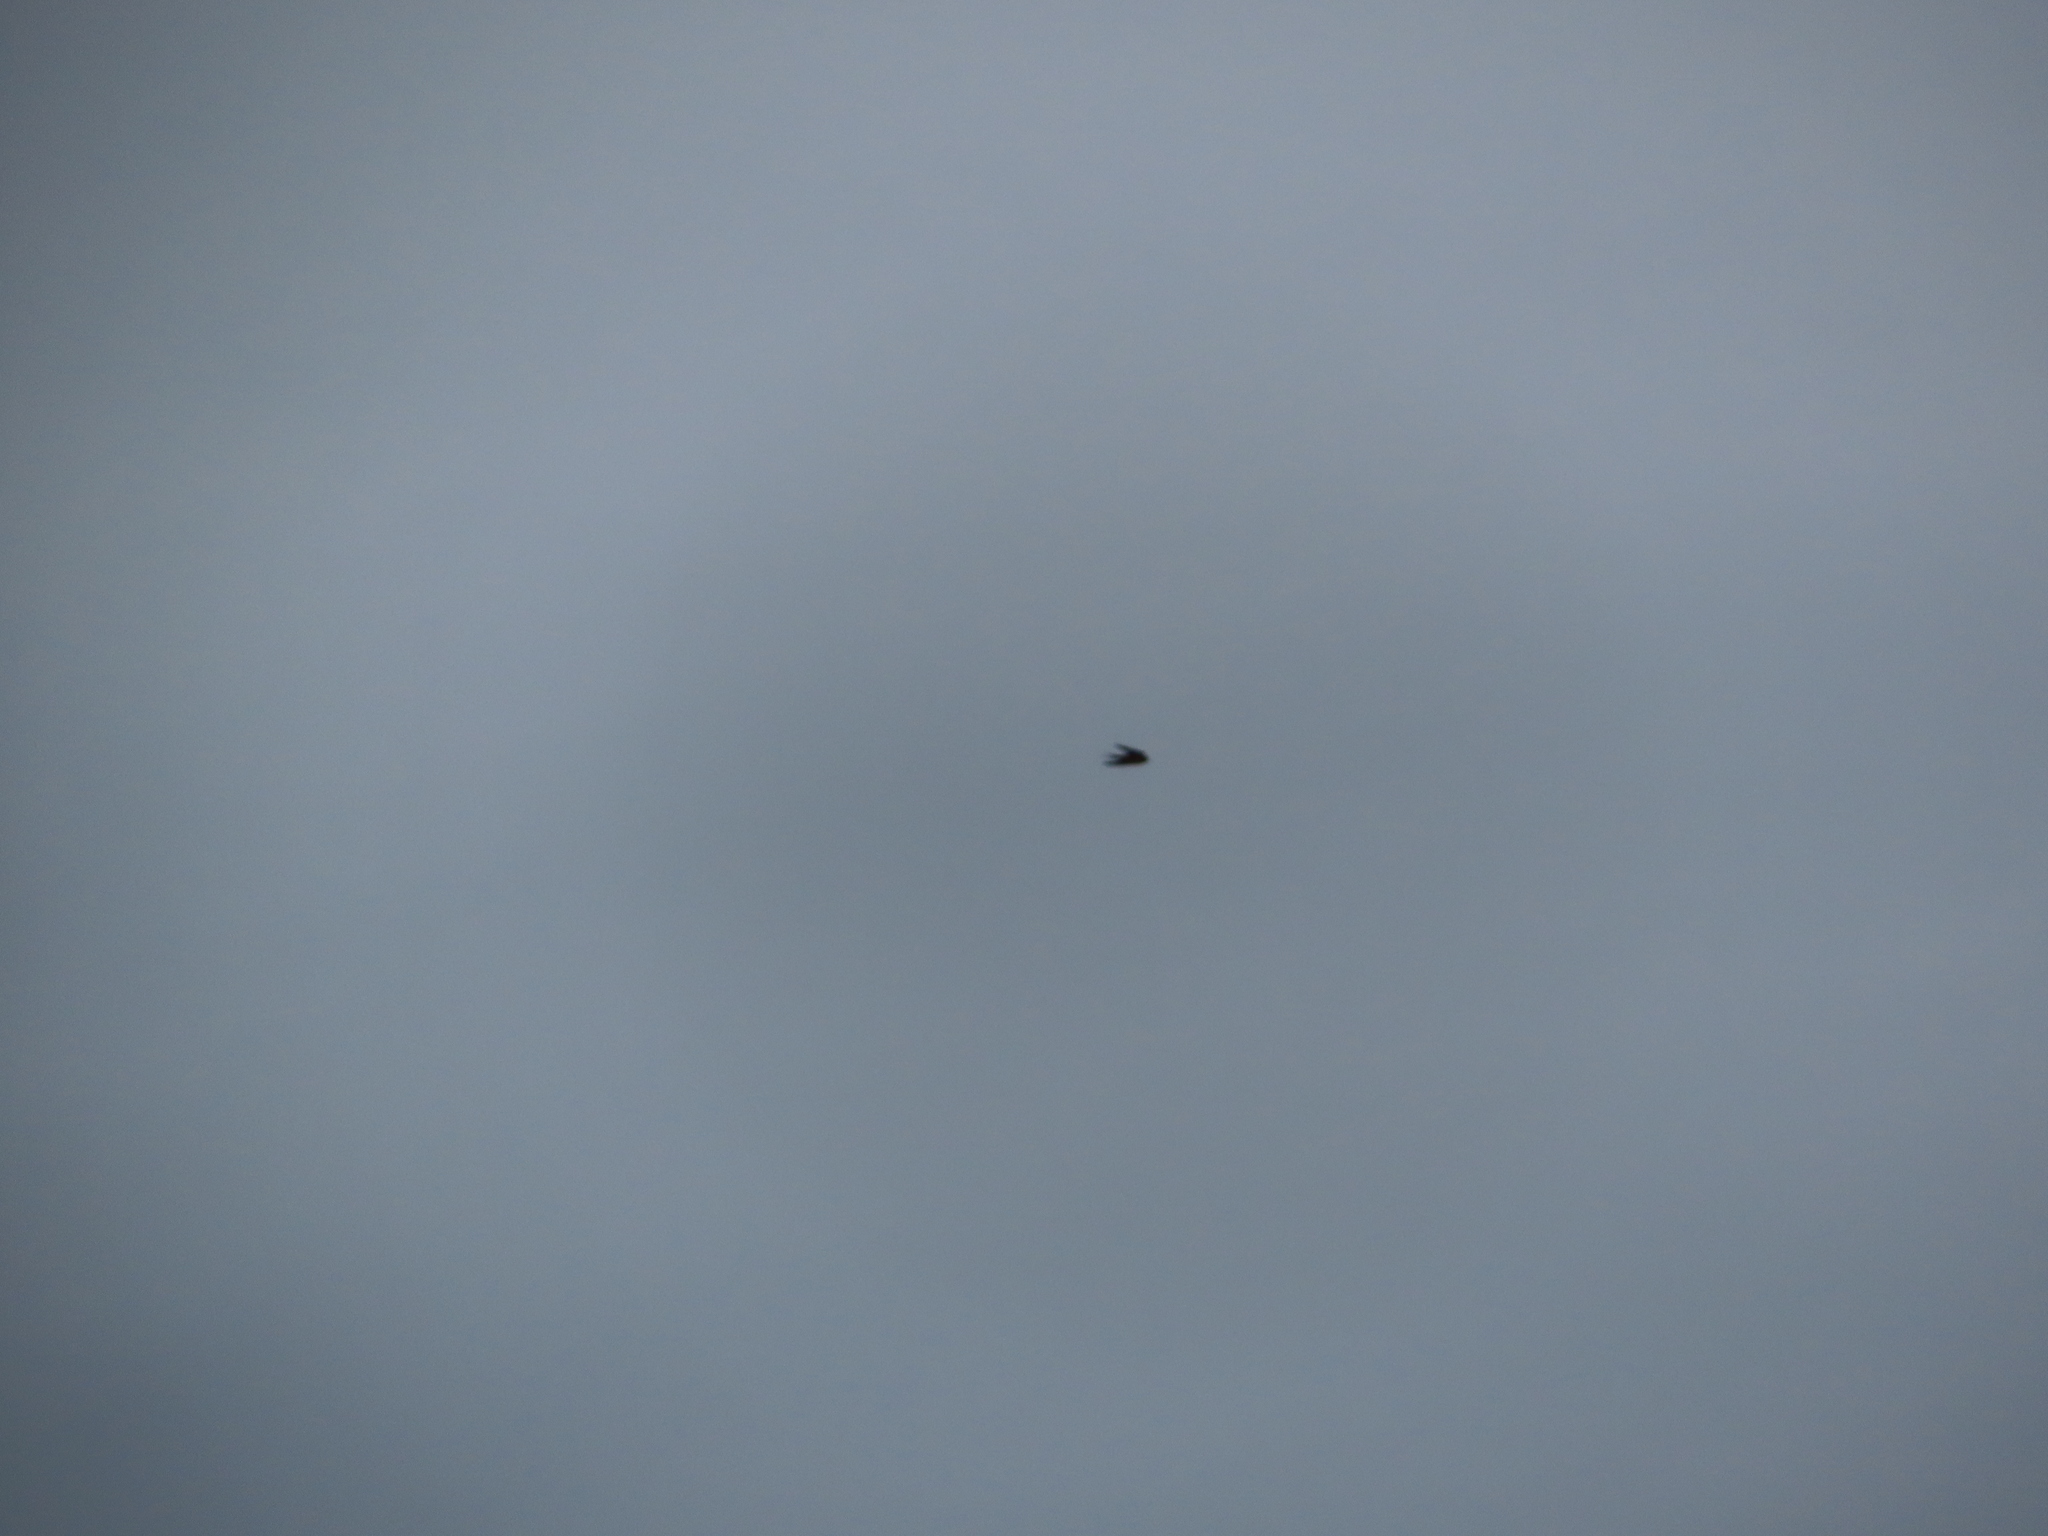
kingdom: Animalia
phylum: Chordata
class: Aves
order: Passeriformes
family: Hirundinidae
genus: Hirundo
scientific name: Hirundo rustica
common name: Barn swallow
